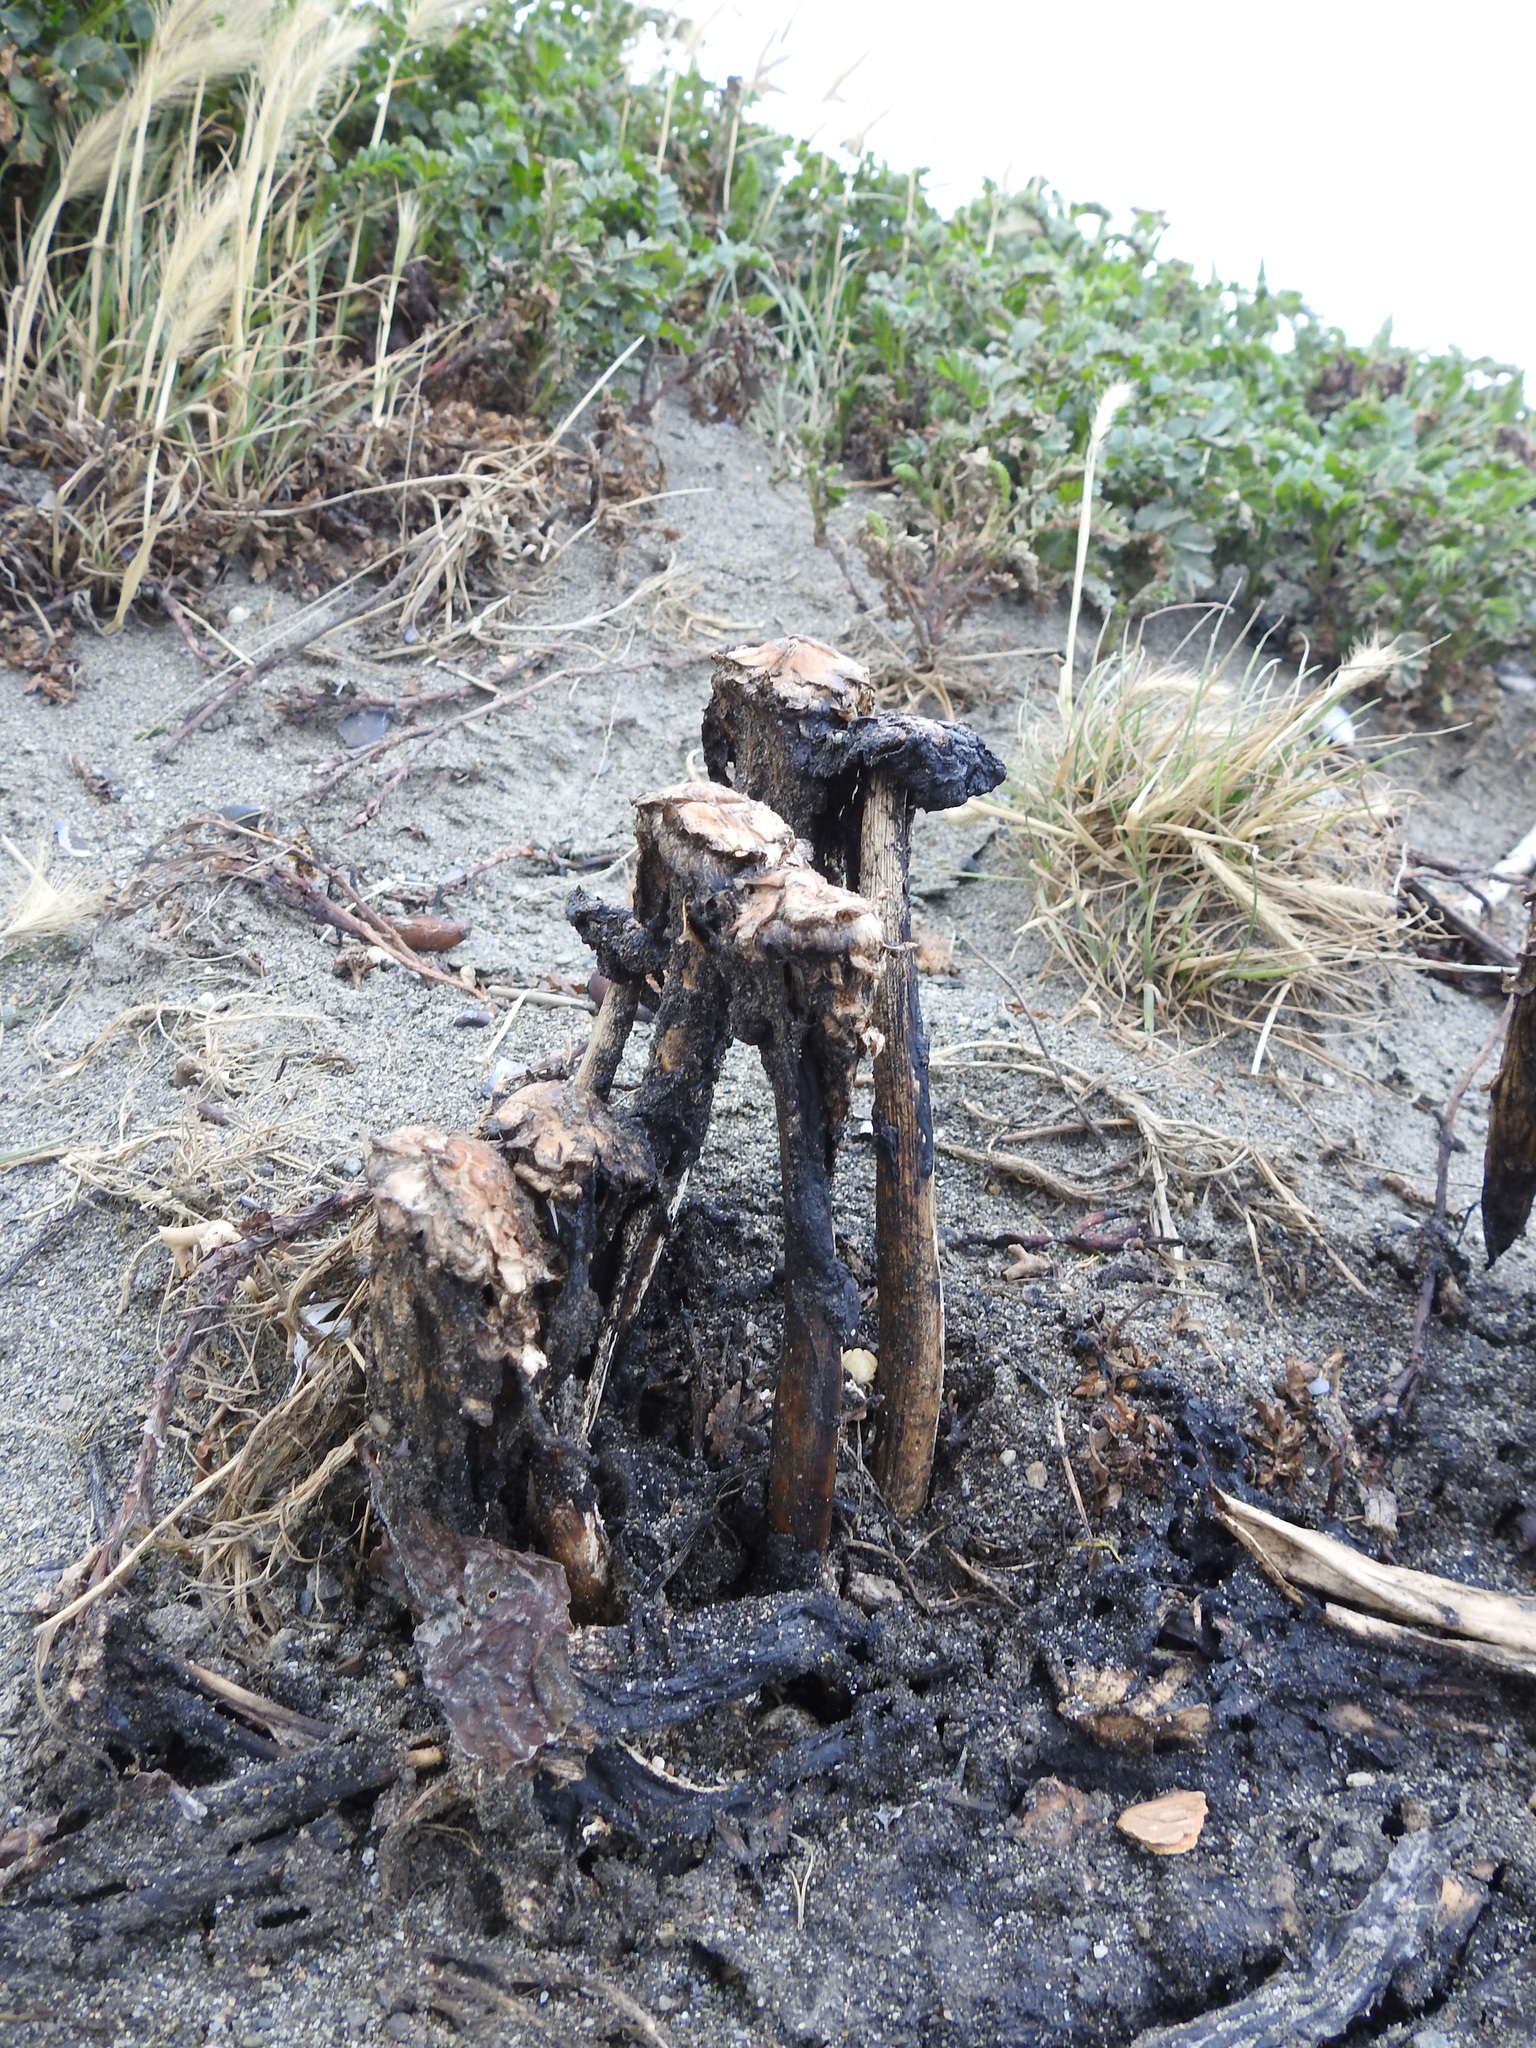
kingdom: Fungi
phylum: Basidiomycota
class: Agaricomycetes
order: Agaricales
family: Agaricaceae
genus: Coprinus
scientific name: Coprinus comatus
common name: Lawyer's wig
